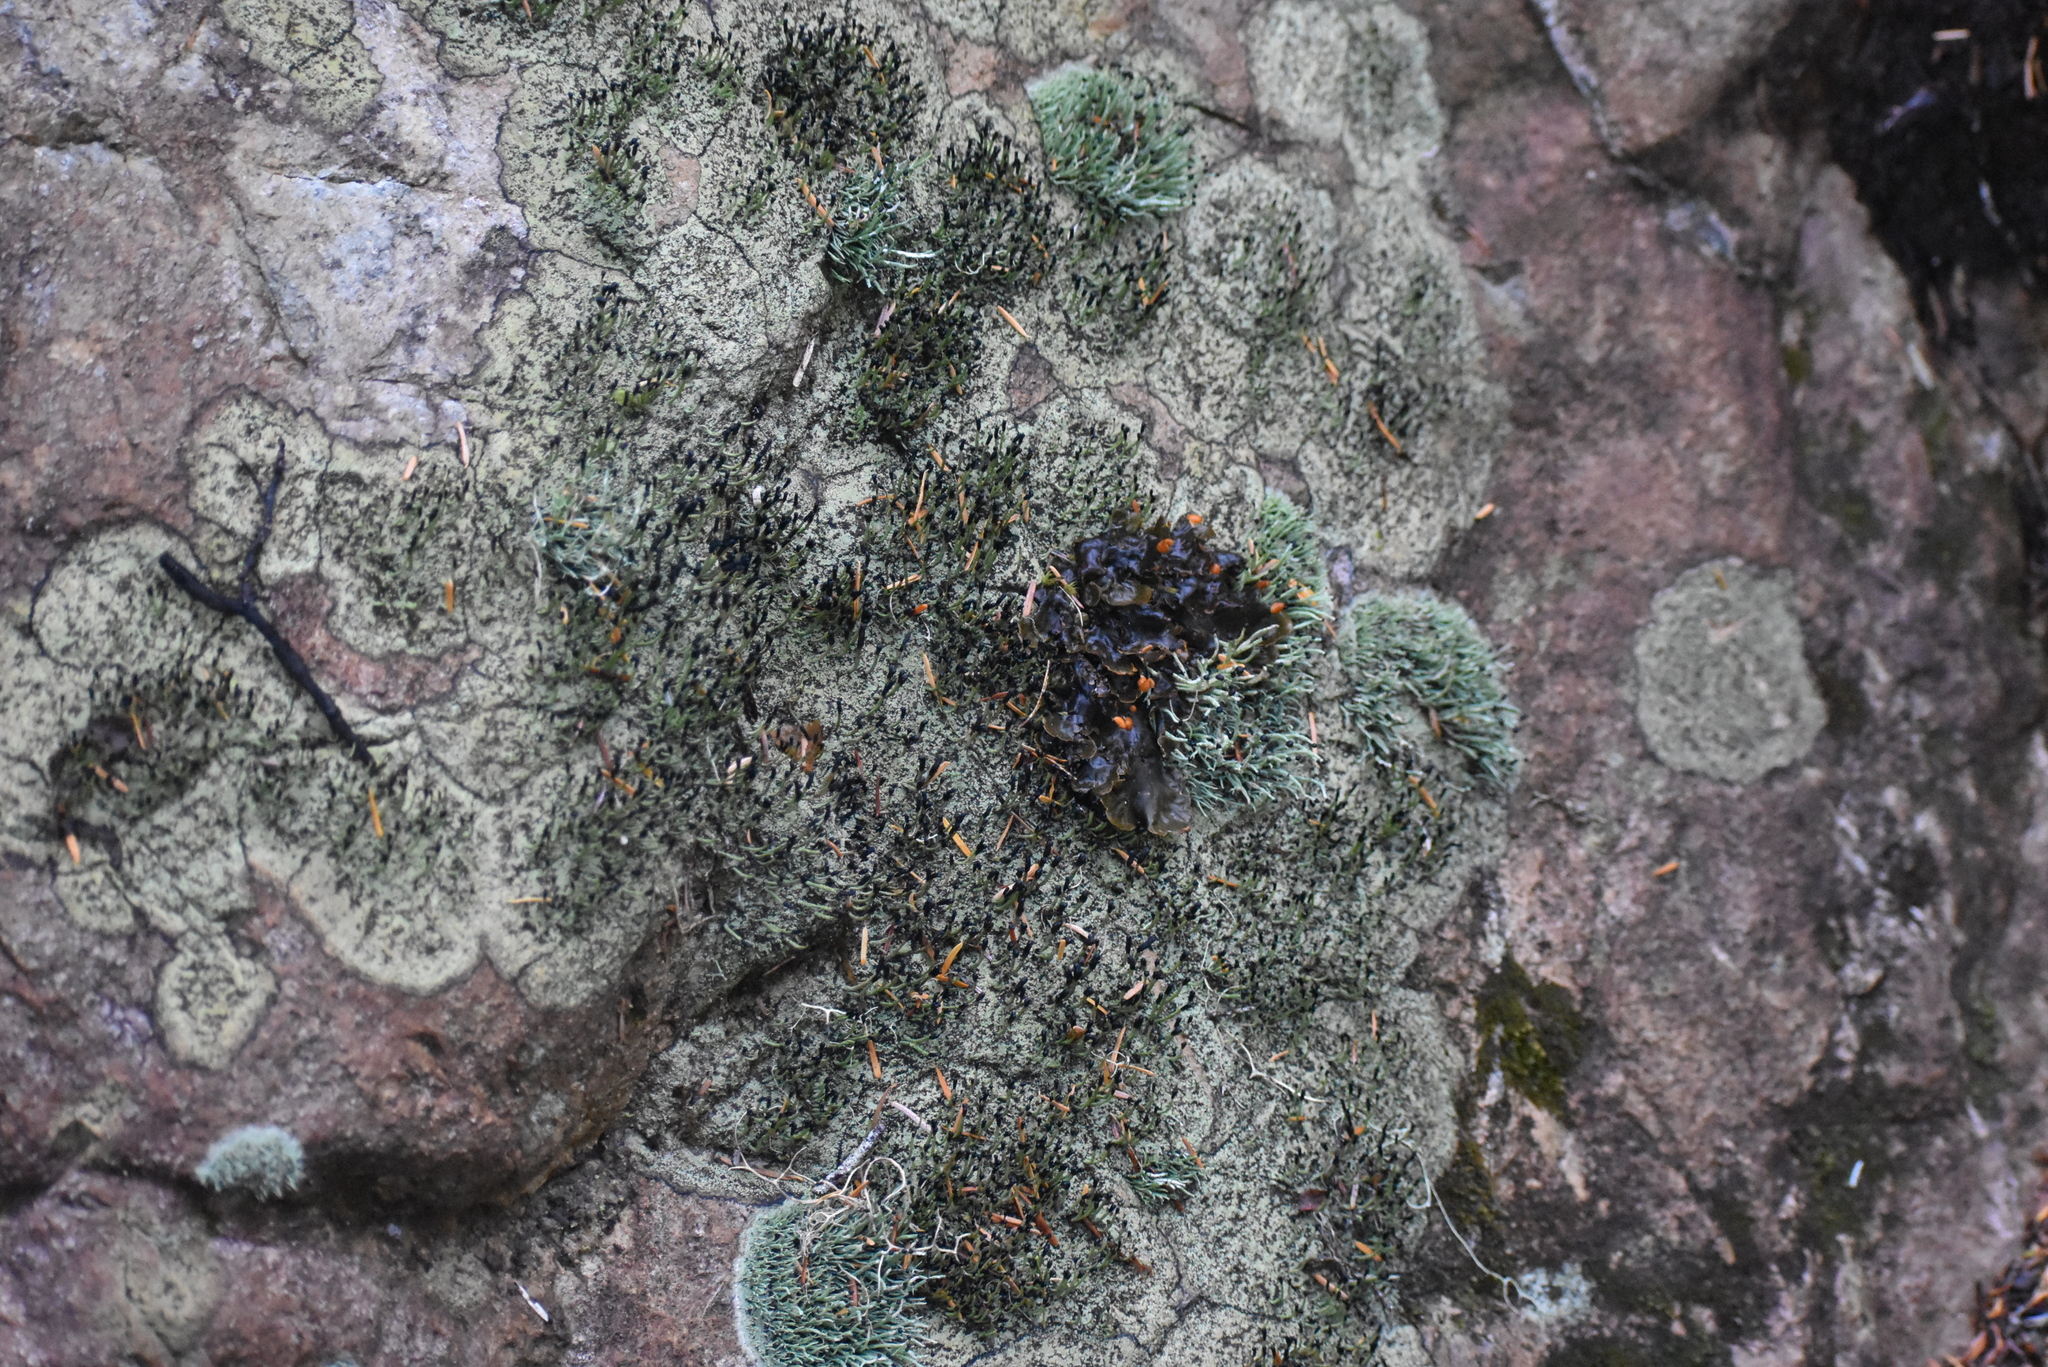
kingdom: Fungi
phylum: Ascomycota
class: Lecanoromycetes
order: Lecanorales
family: Cladoniaceae
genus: Pilophorus
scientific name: Pilophorus clavatus
